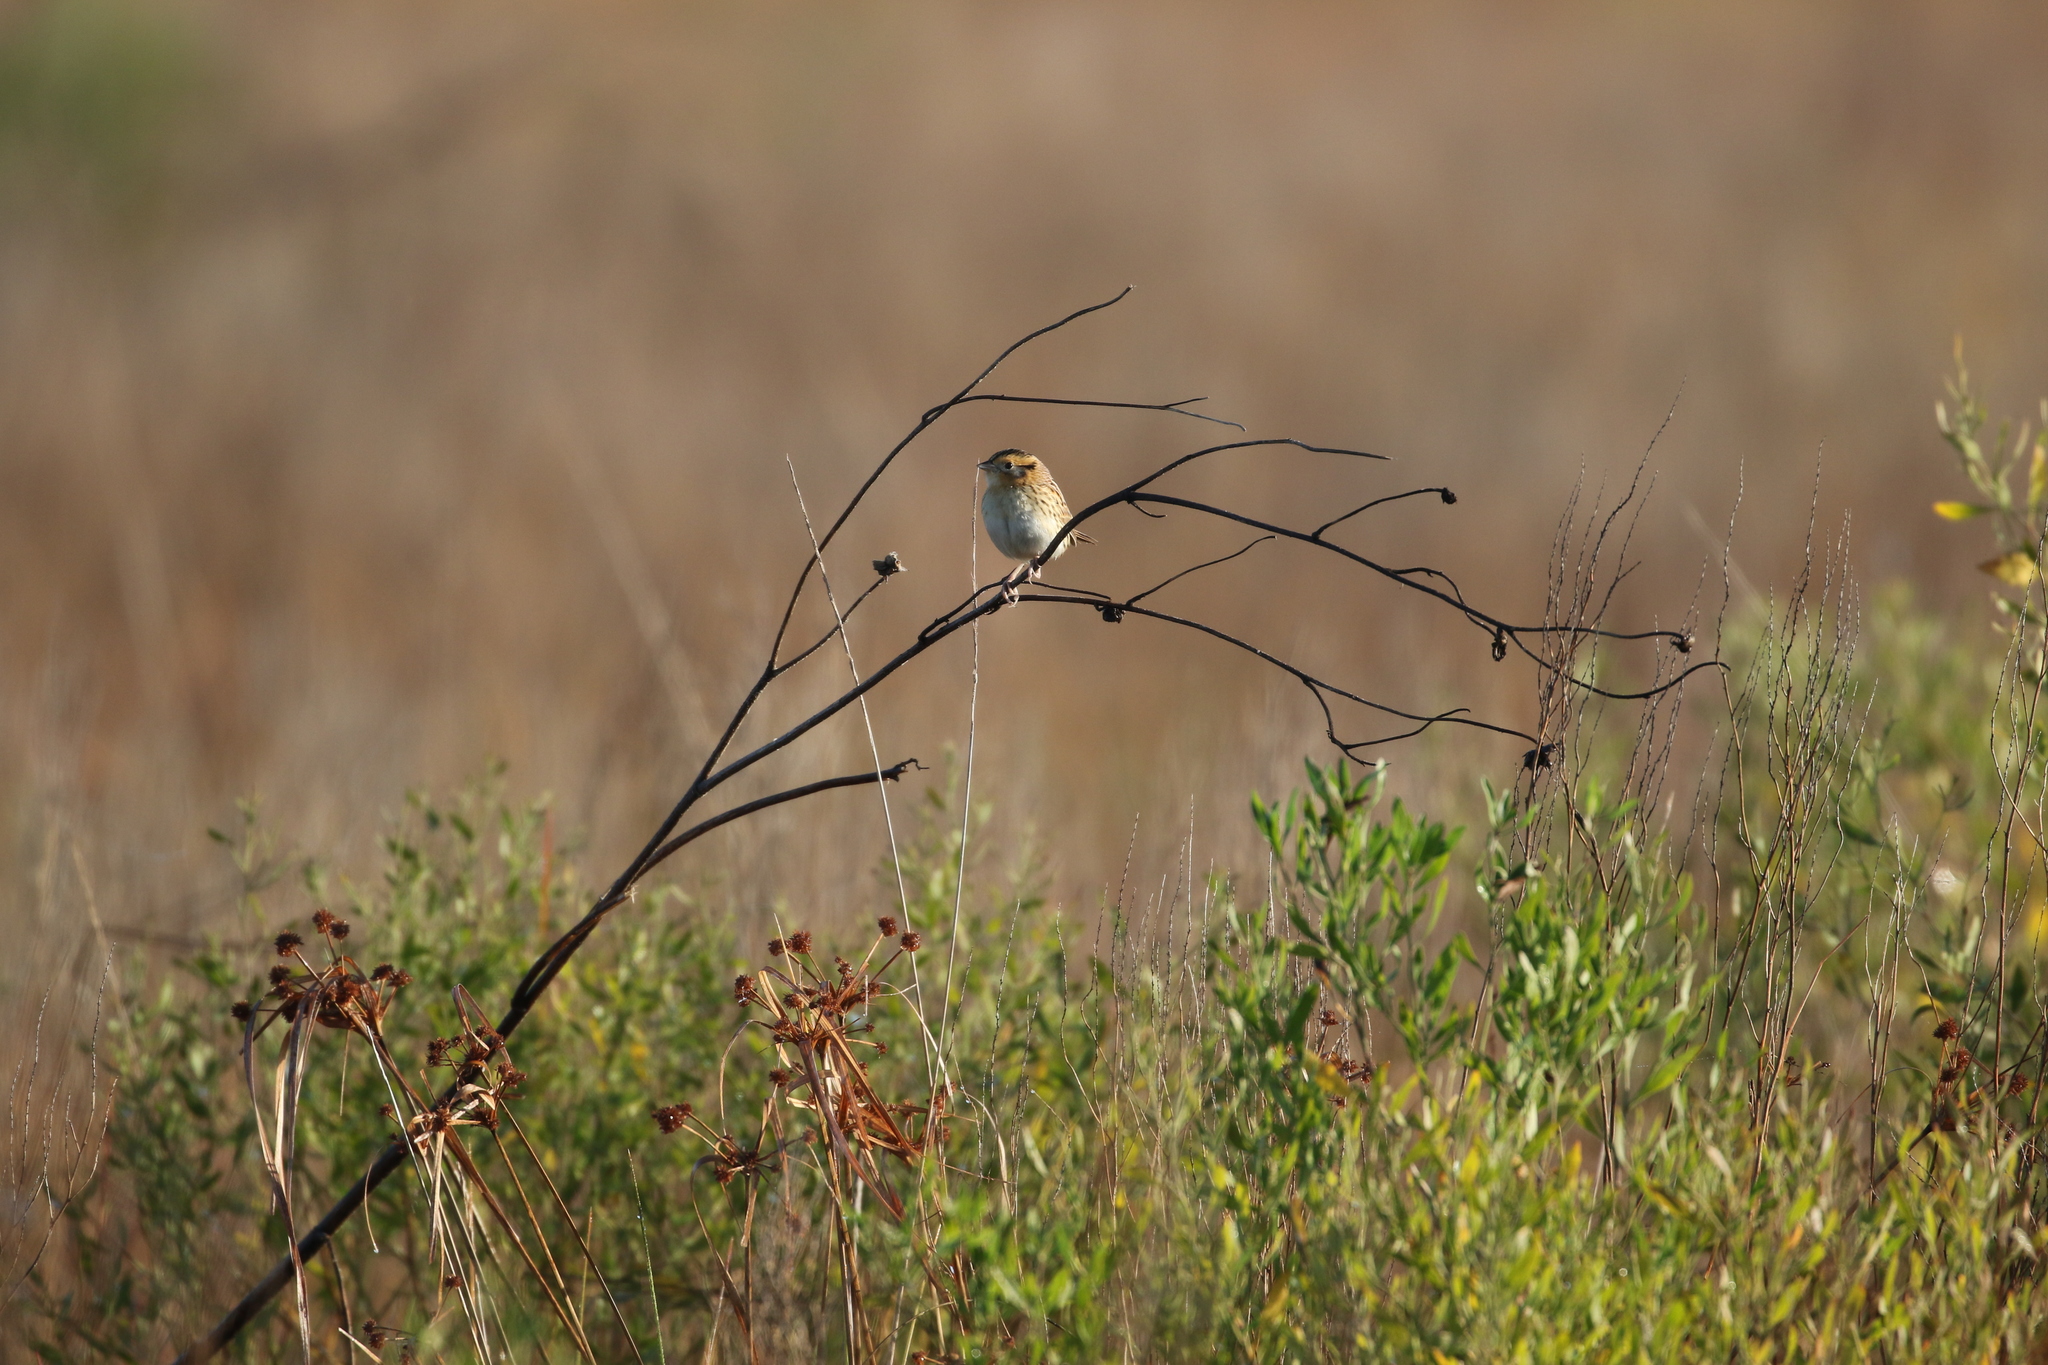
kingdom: Animalia
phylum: Chordata
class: Aves
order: Passeriformes
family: Passerellidae
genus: Ammospiza
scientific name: Ammospiza leconteii
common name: Le conte's sparrow
